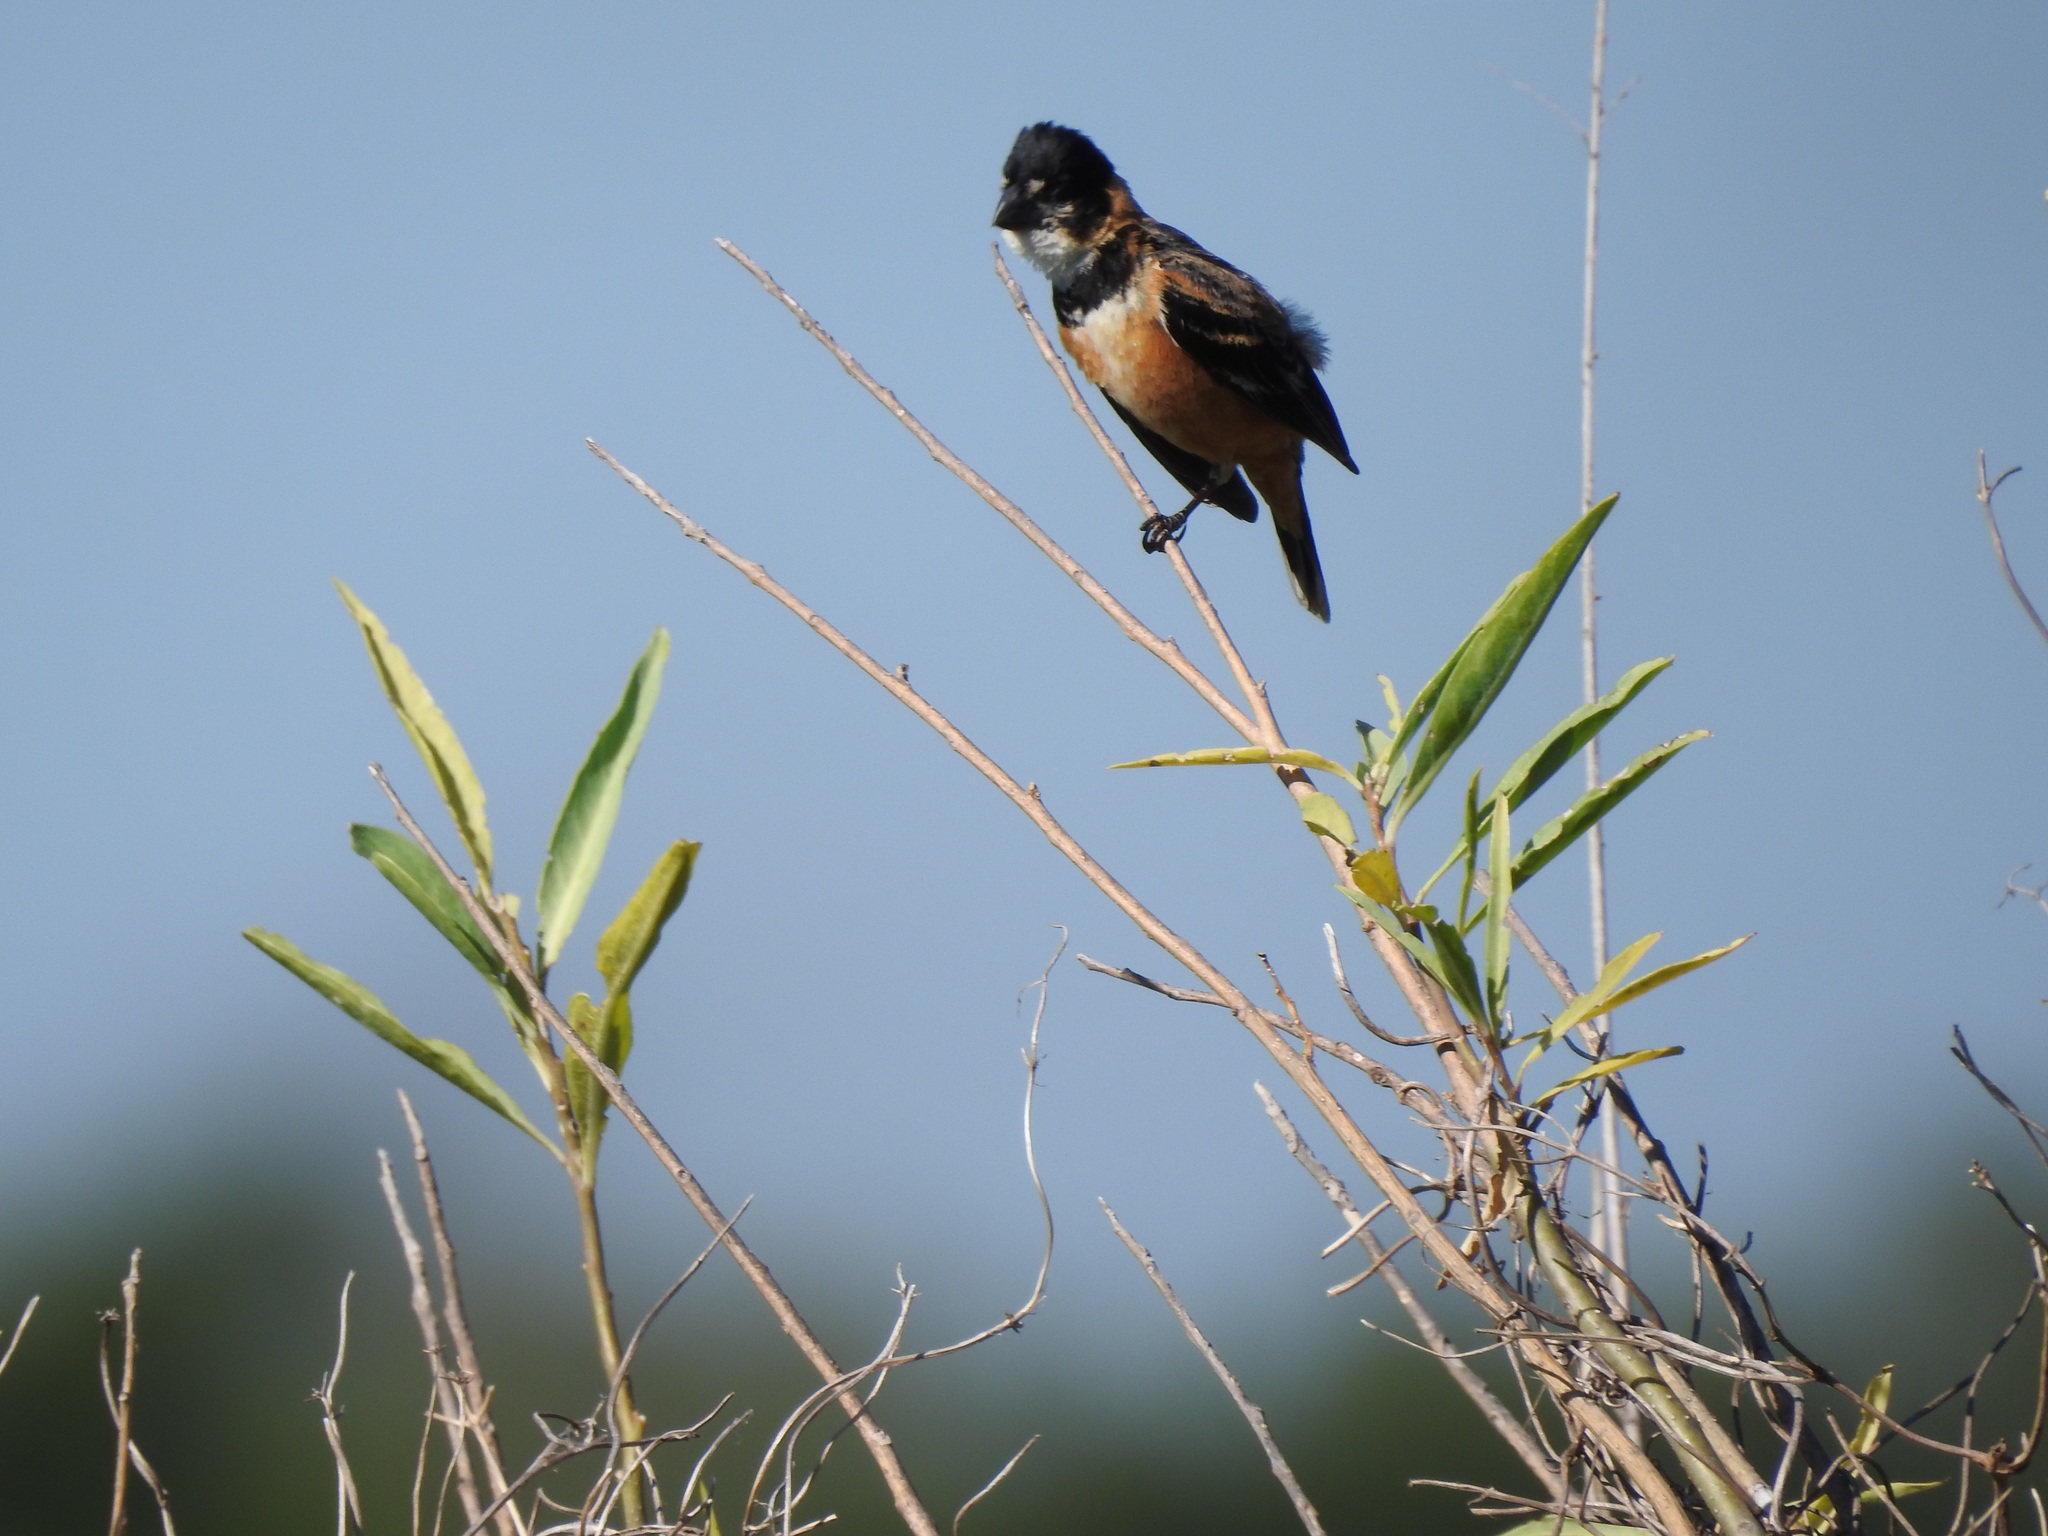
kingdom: Animalia
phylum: Chordata
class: Aves
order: Passeriformes
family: Thraupidae
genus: Sporophila
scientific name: Sporophila collaris
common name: Rusty-collared seedeater
